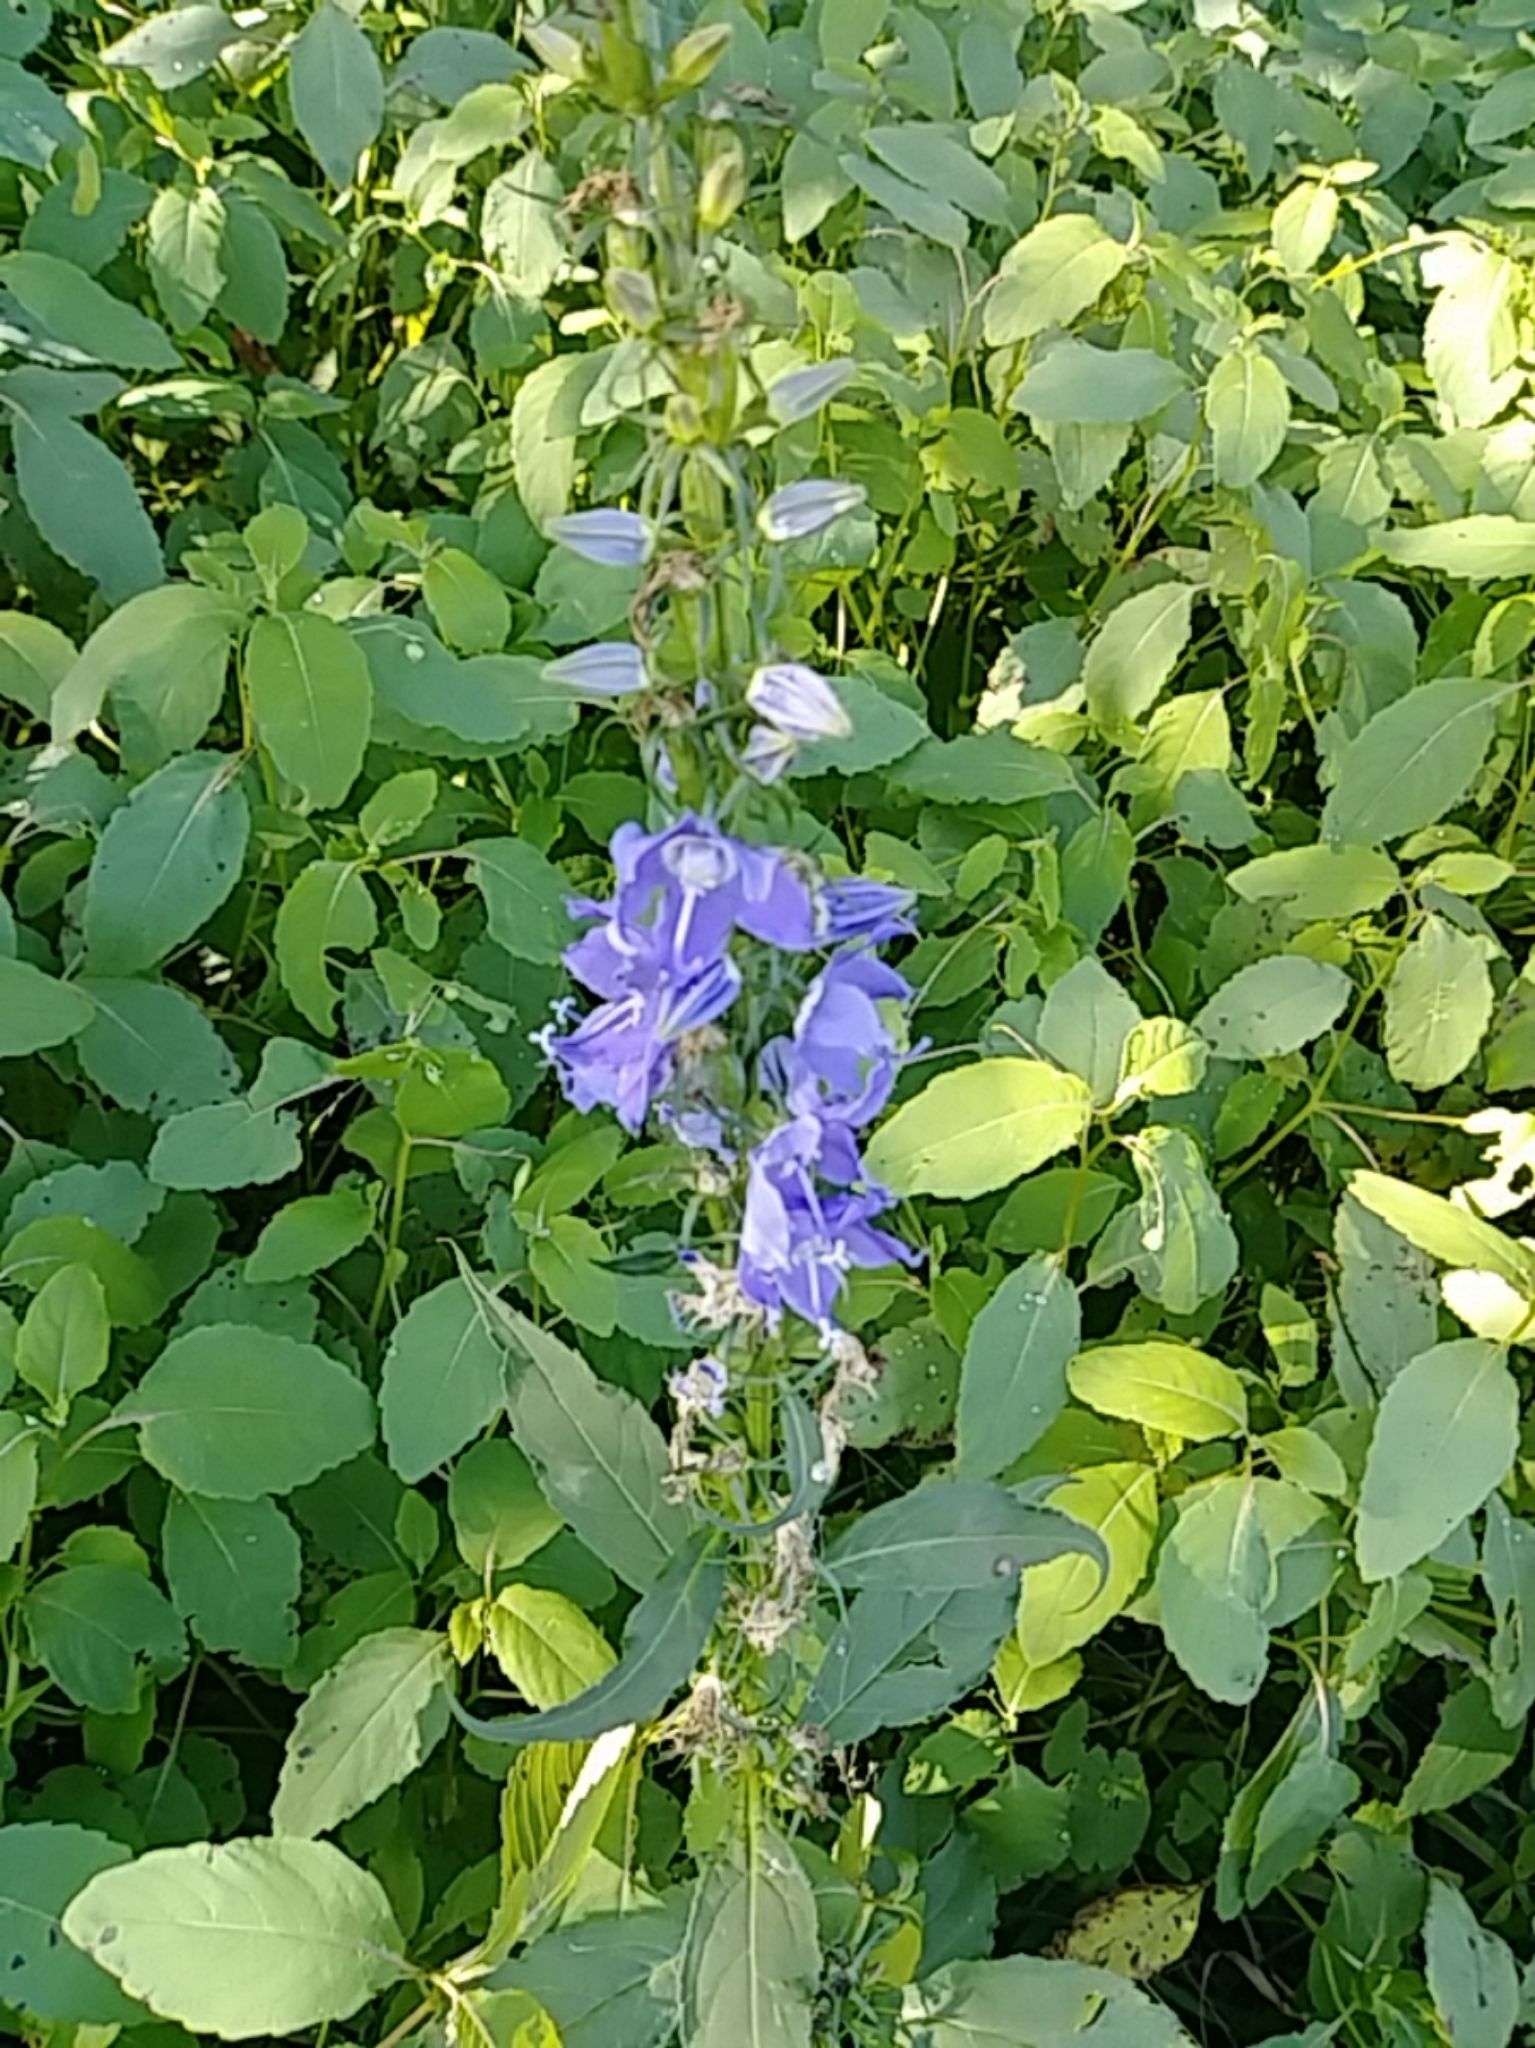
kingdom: Plantae
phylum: Tracheophyta
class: Magnoliopsida
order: Asterales
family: Campanulaceae
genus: Campanulastrum
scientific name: Campanulastrum americanum
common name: American bellflower
